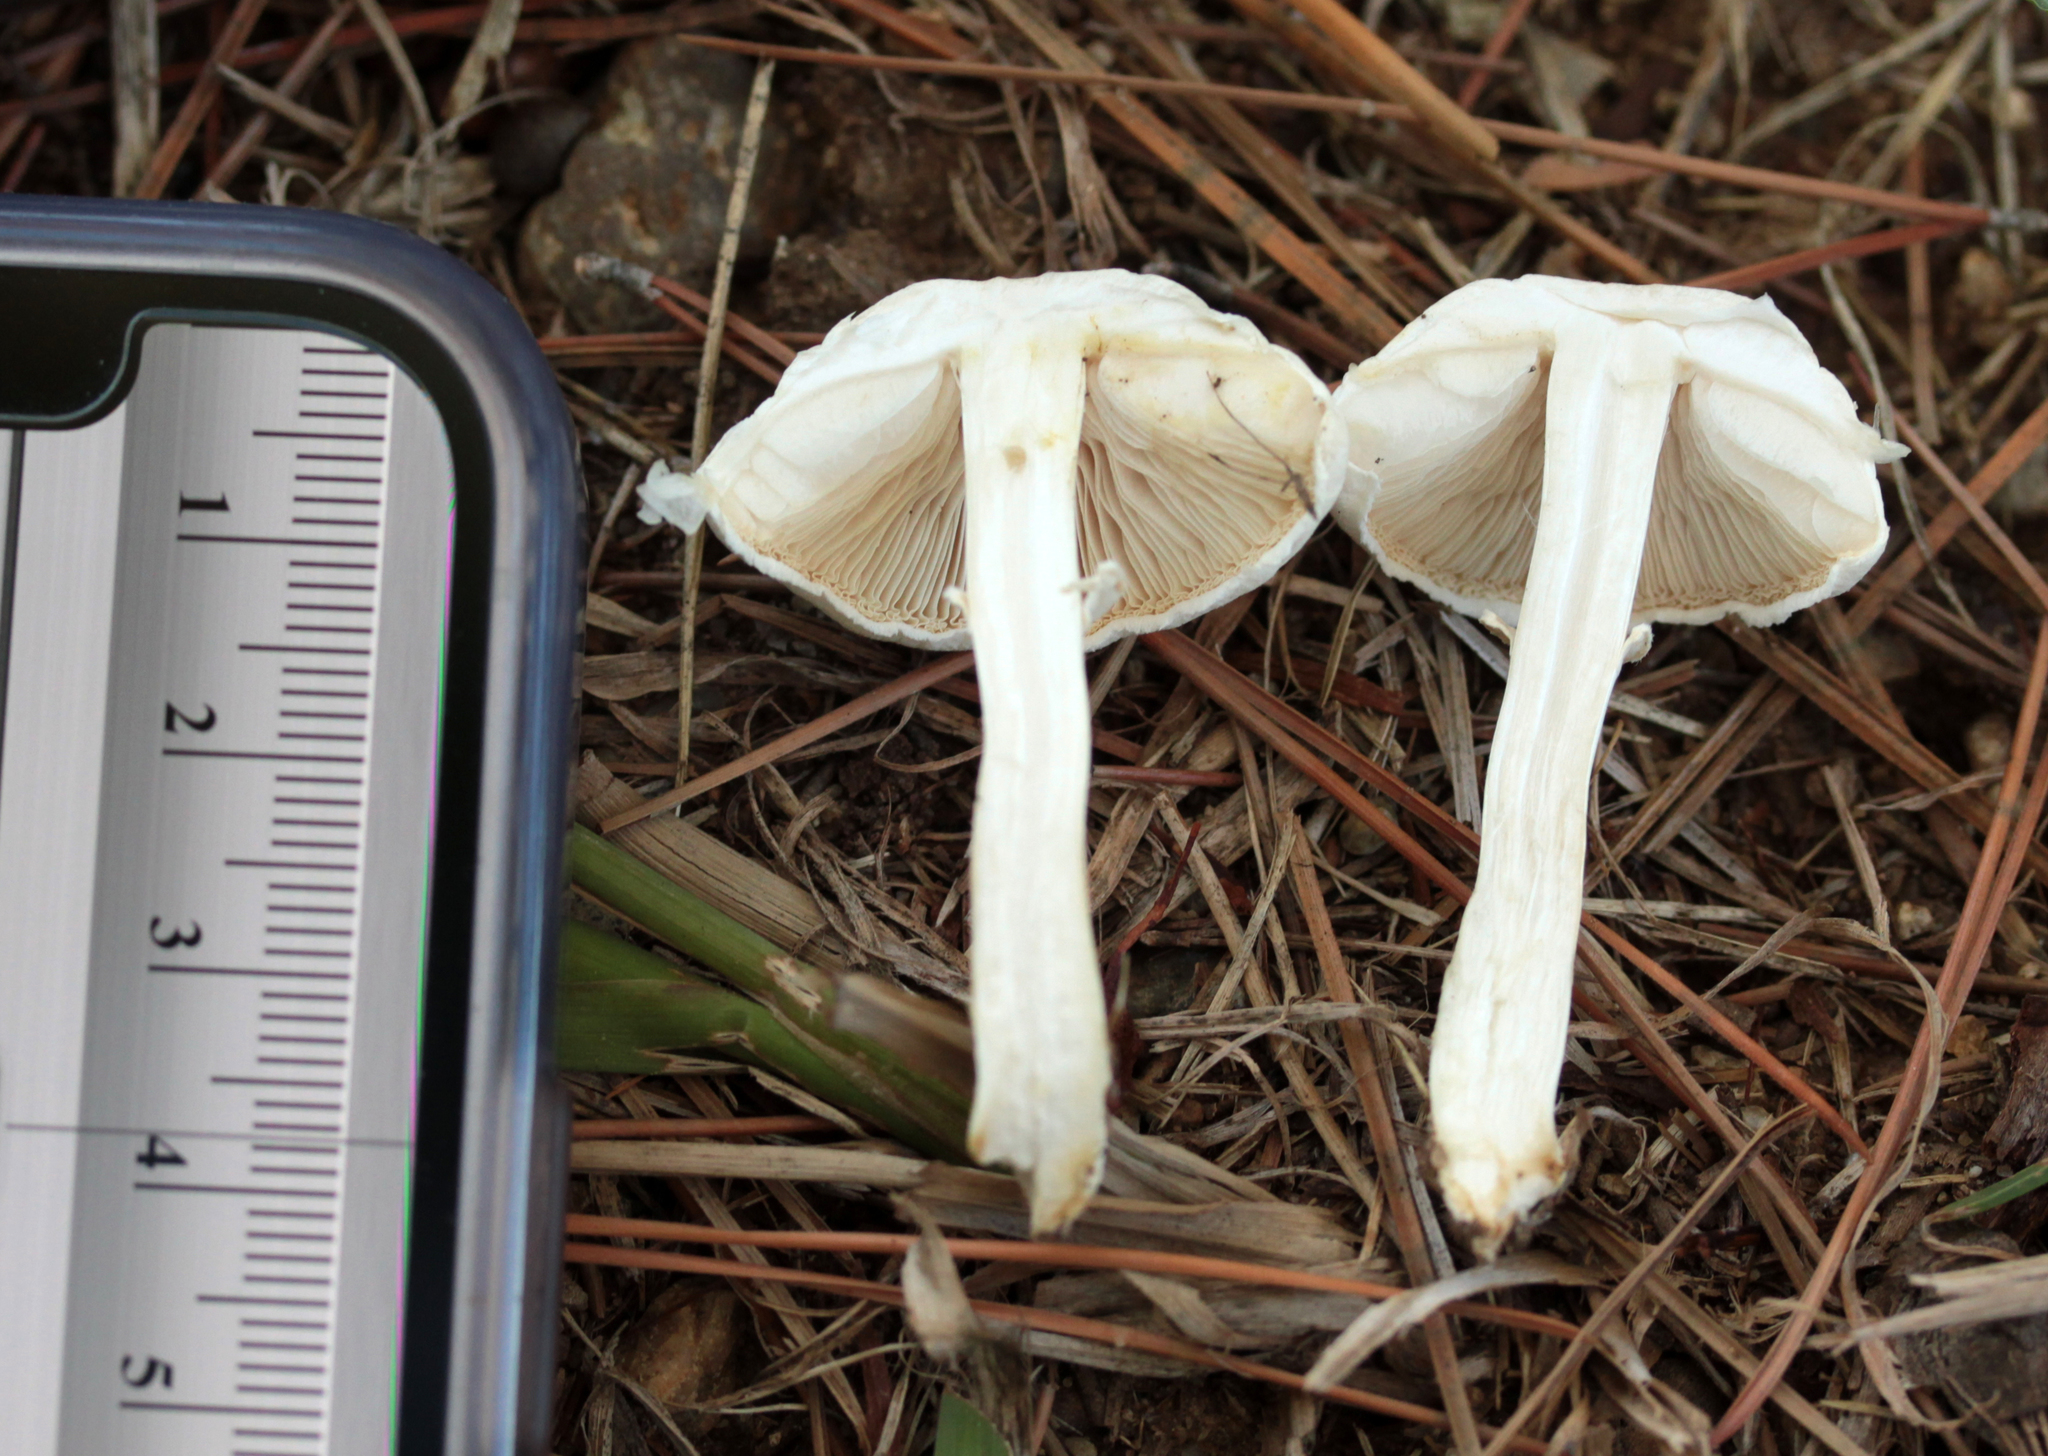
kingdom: Fungi
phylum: Basidiomycota
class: Agaricomycetes
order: Agaricales
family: Agaricaceae
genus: Leucoagaricus
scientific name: Leucoagaricus leucothites
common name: White dapperling
